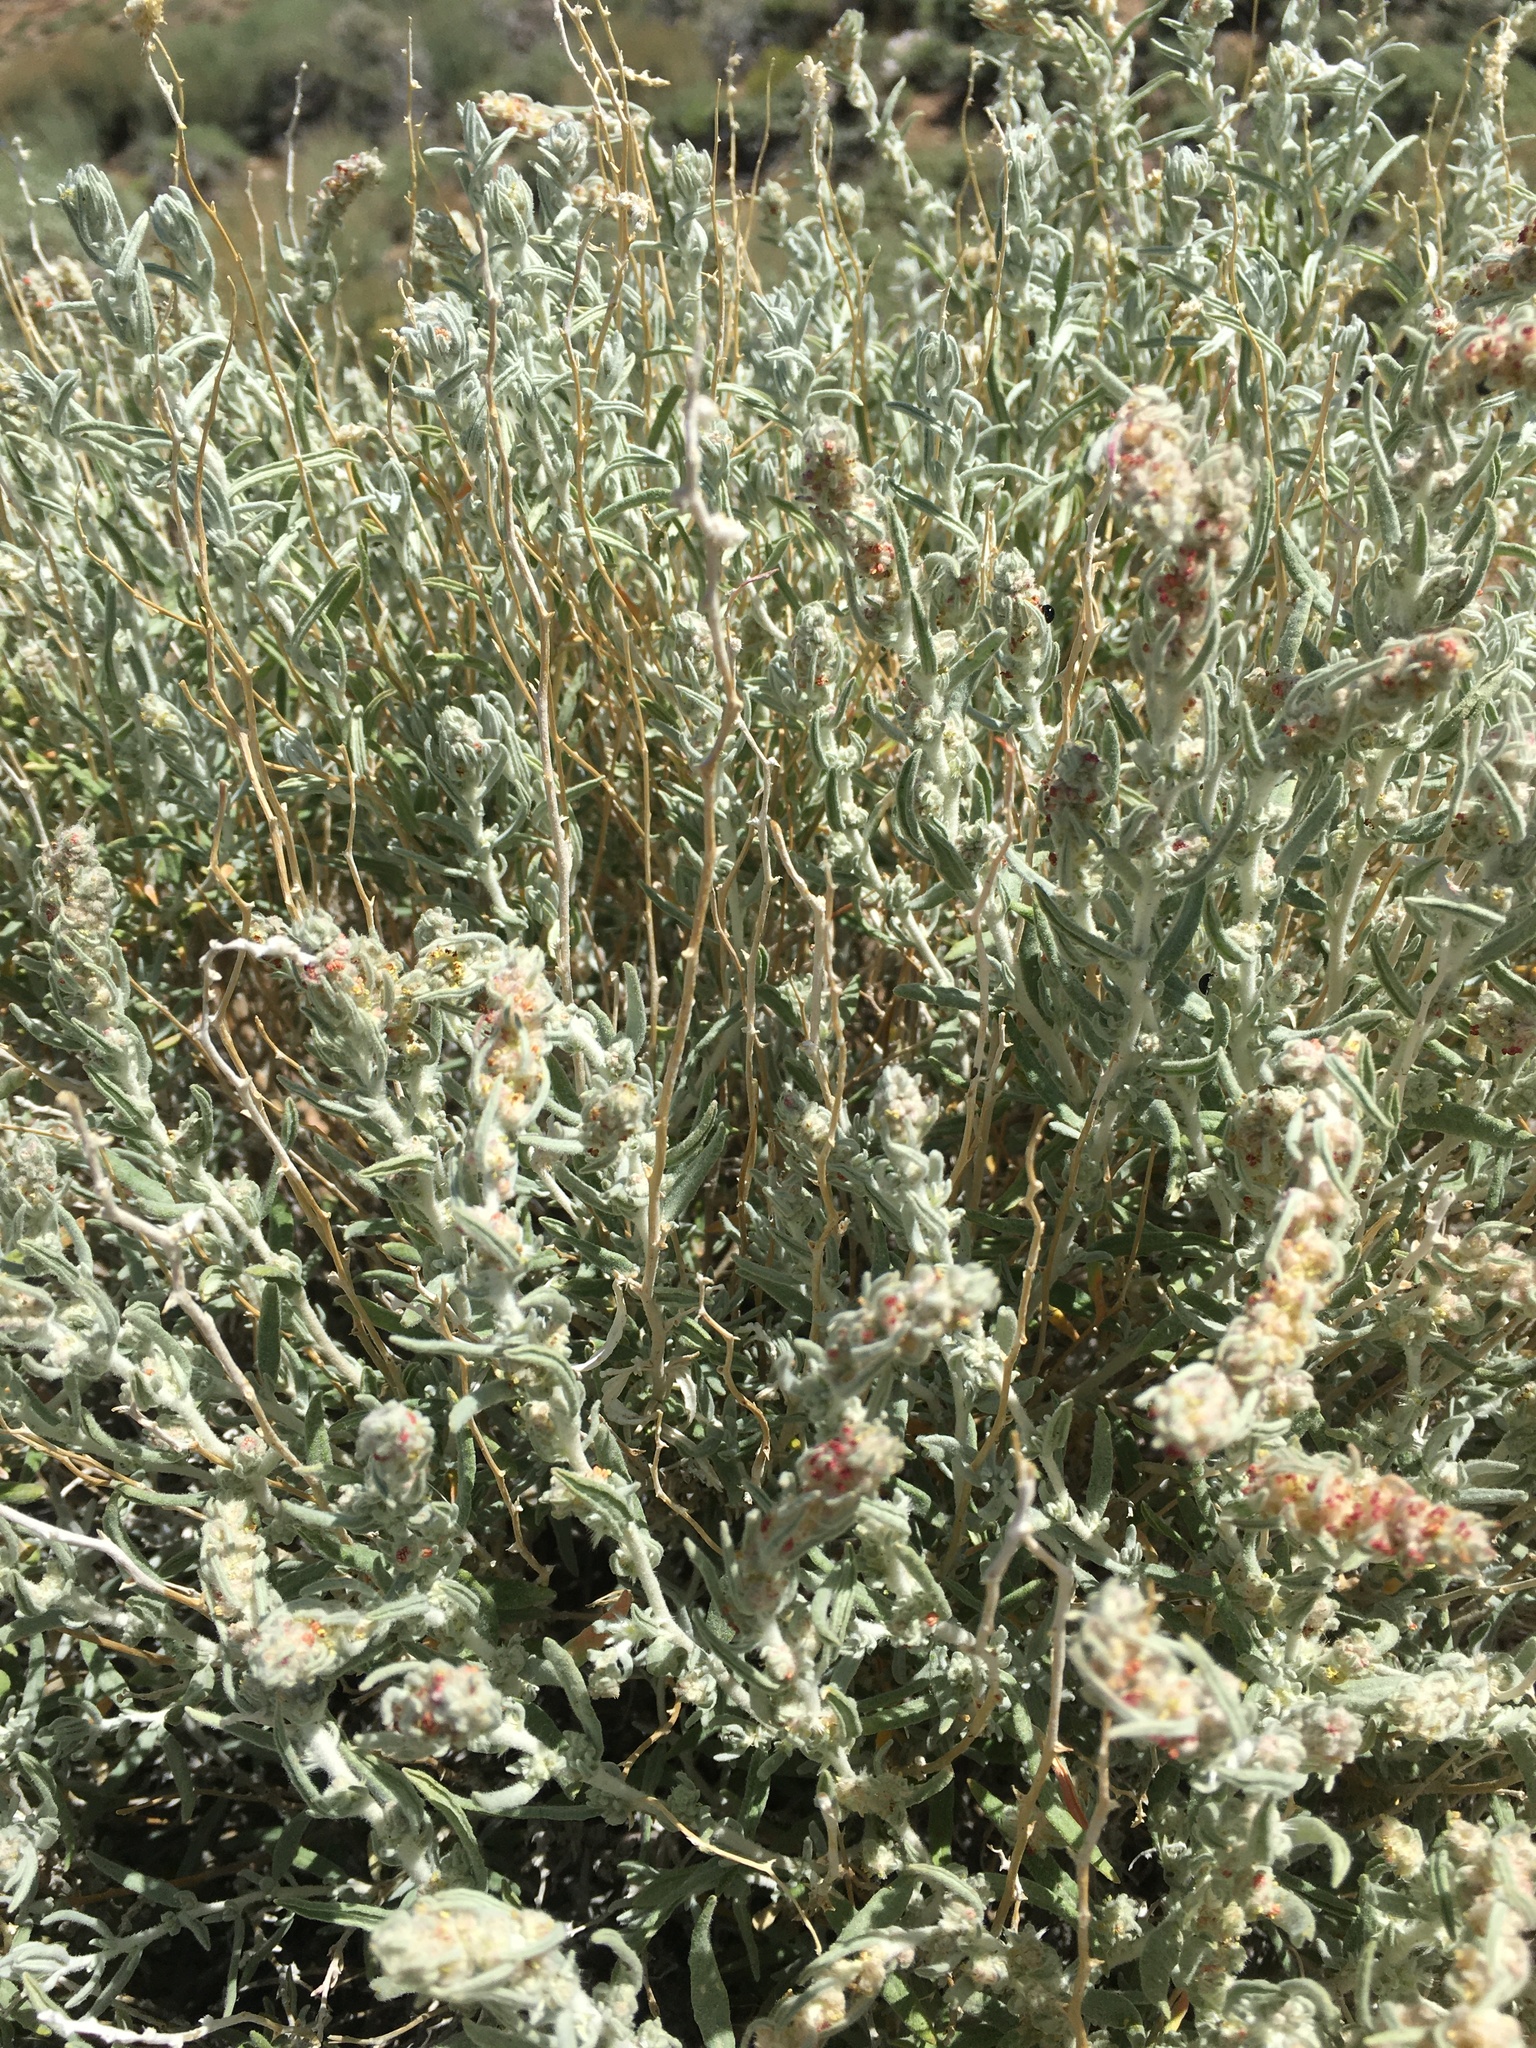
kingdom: Plantae
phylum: Tracheophyta
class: Magnoliopsida
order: Caryophyllales
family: Amaranthaceae
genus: Krascheninnikovia
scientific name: Krascheninnikovia lanata
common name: Winterfat
